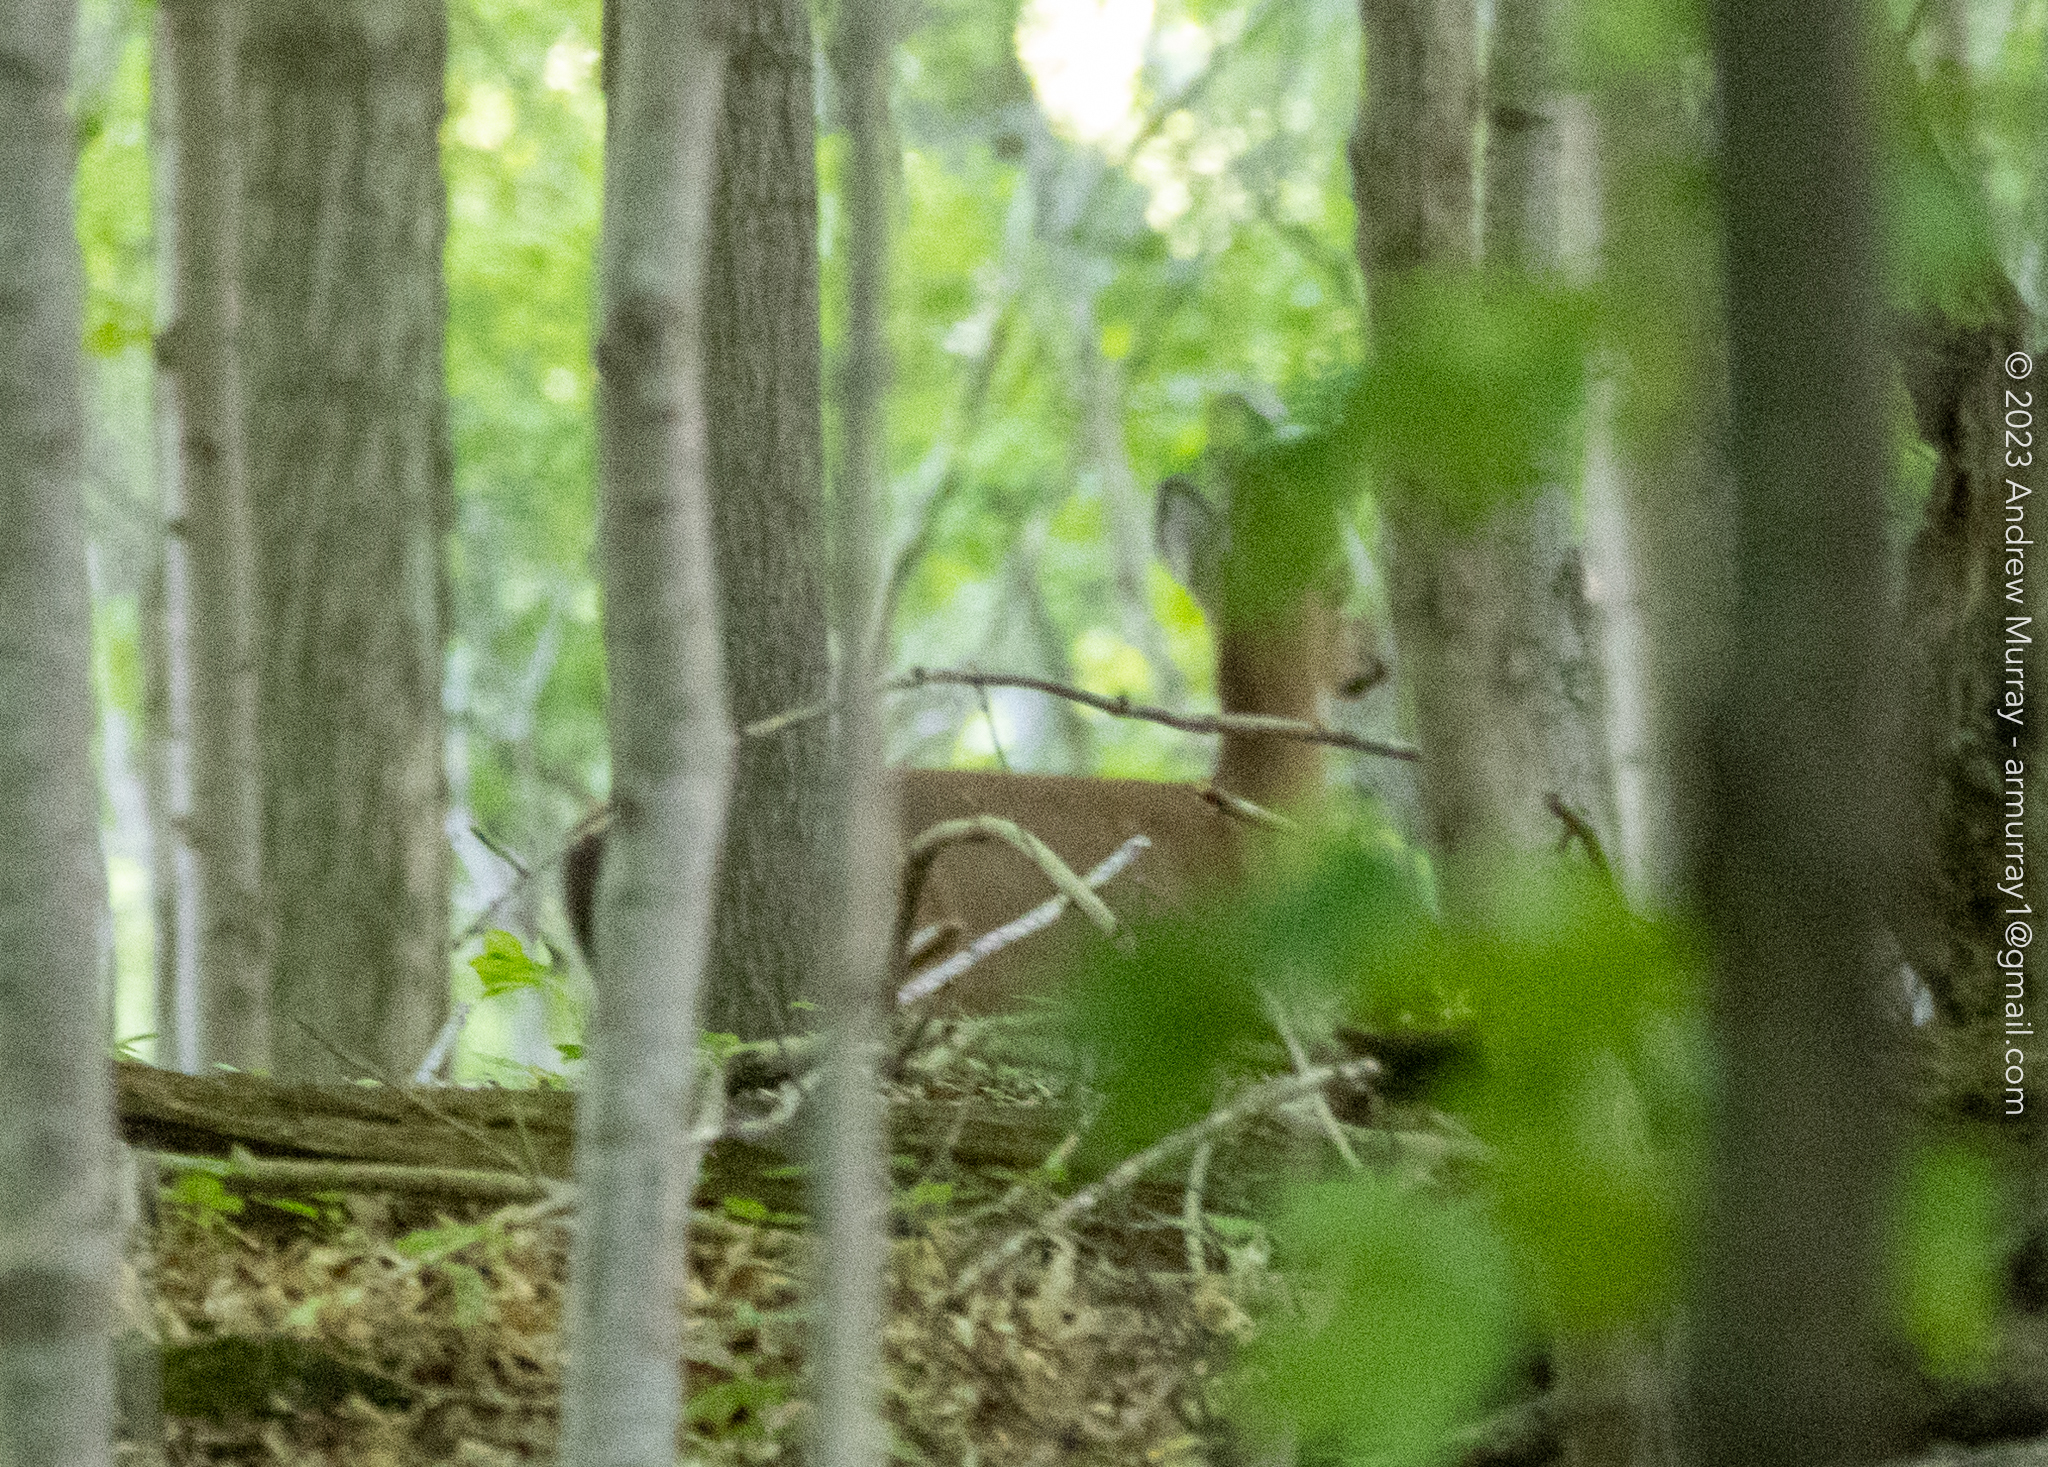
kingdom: Animalia
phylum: Chordata
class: Mammalia
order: Artiodactyla
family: Cervidae
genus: Odocoileus
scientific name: Odocoileus virginianus
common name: White-tailed deer
